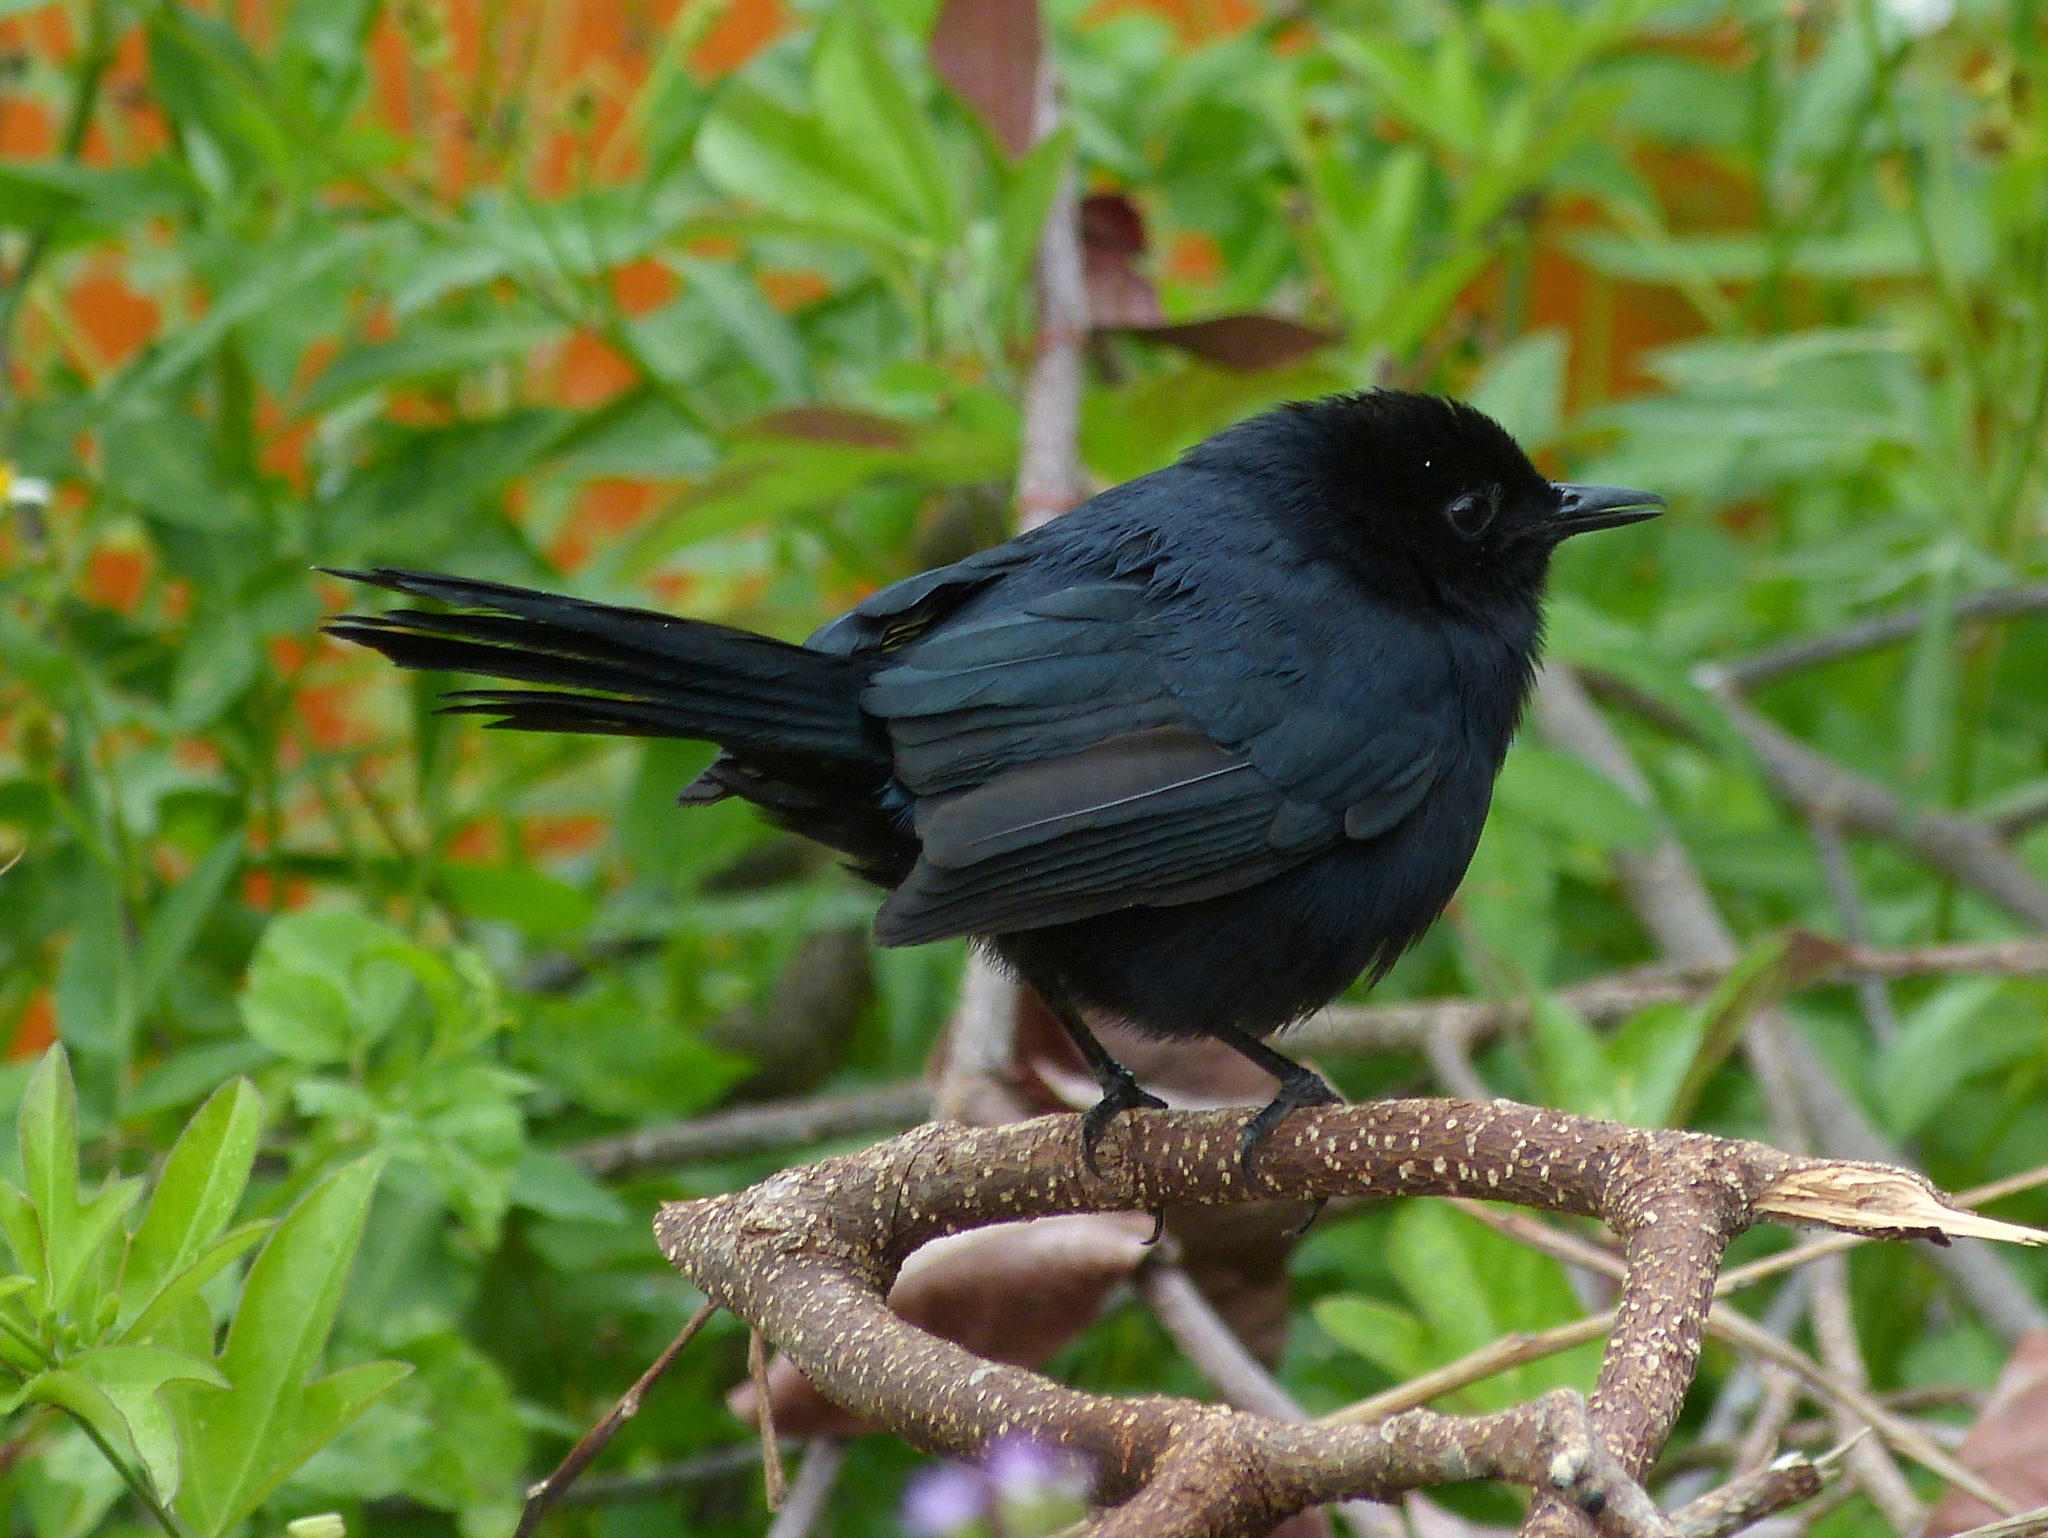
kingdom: Animalia
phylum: Chordata
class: Aves
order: Passeriformes
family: Mimidae
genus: Melanoptila
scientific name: Melanoptila glabrirostris
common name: Black catbird
